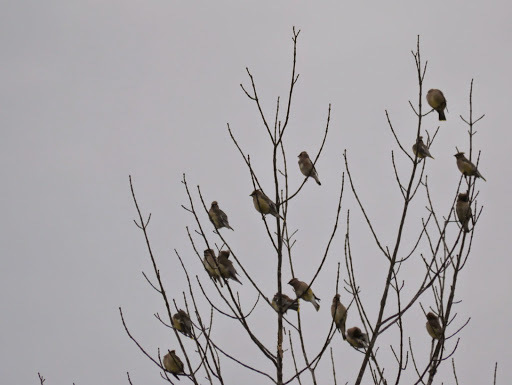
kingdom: Animalia
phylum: Chordata
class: Aves
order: Passeriformes
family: Bombycillidae
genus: Bombycilla
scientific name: Bombycilla cedrorum
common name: Cedar waxwing
